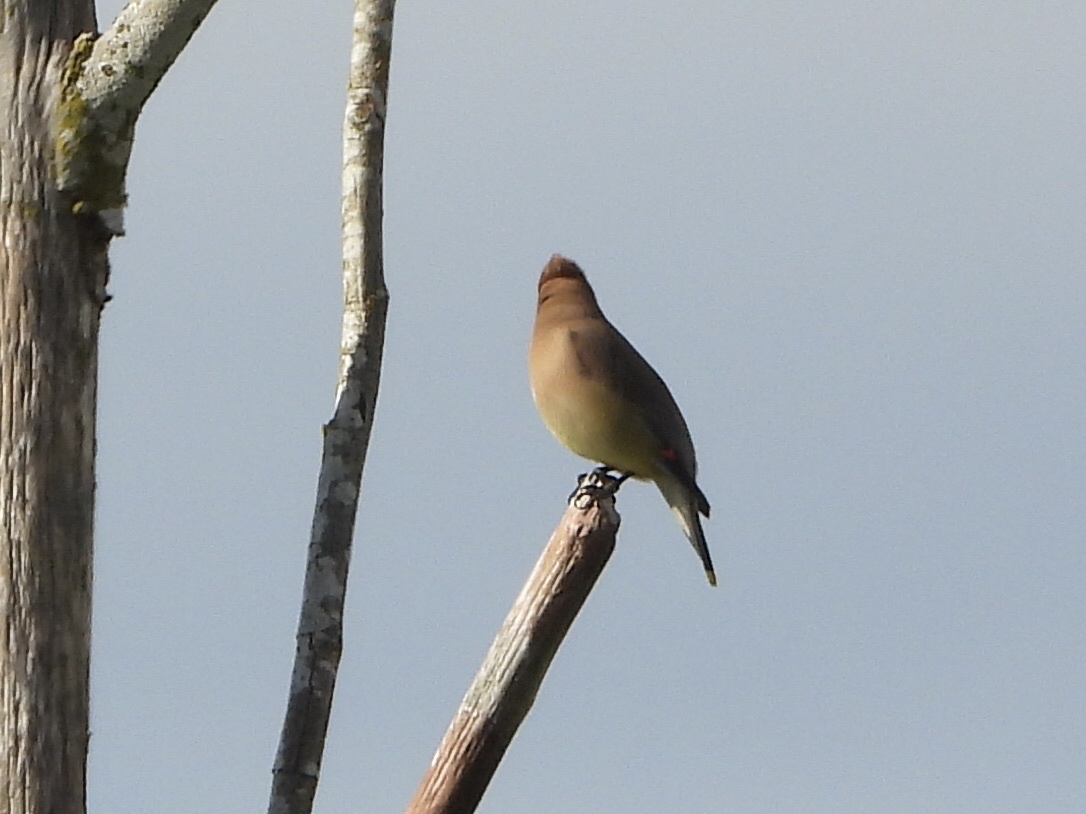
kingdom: Animalia
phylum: Chordata
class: Aves
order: Passeriformes
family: Bombycillidae
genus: Bombycilla
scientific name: Bombycilla cedrorum
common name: Cedar waxwing
